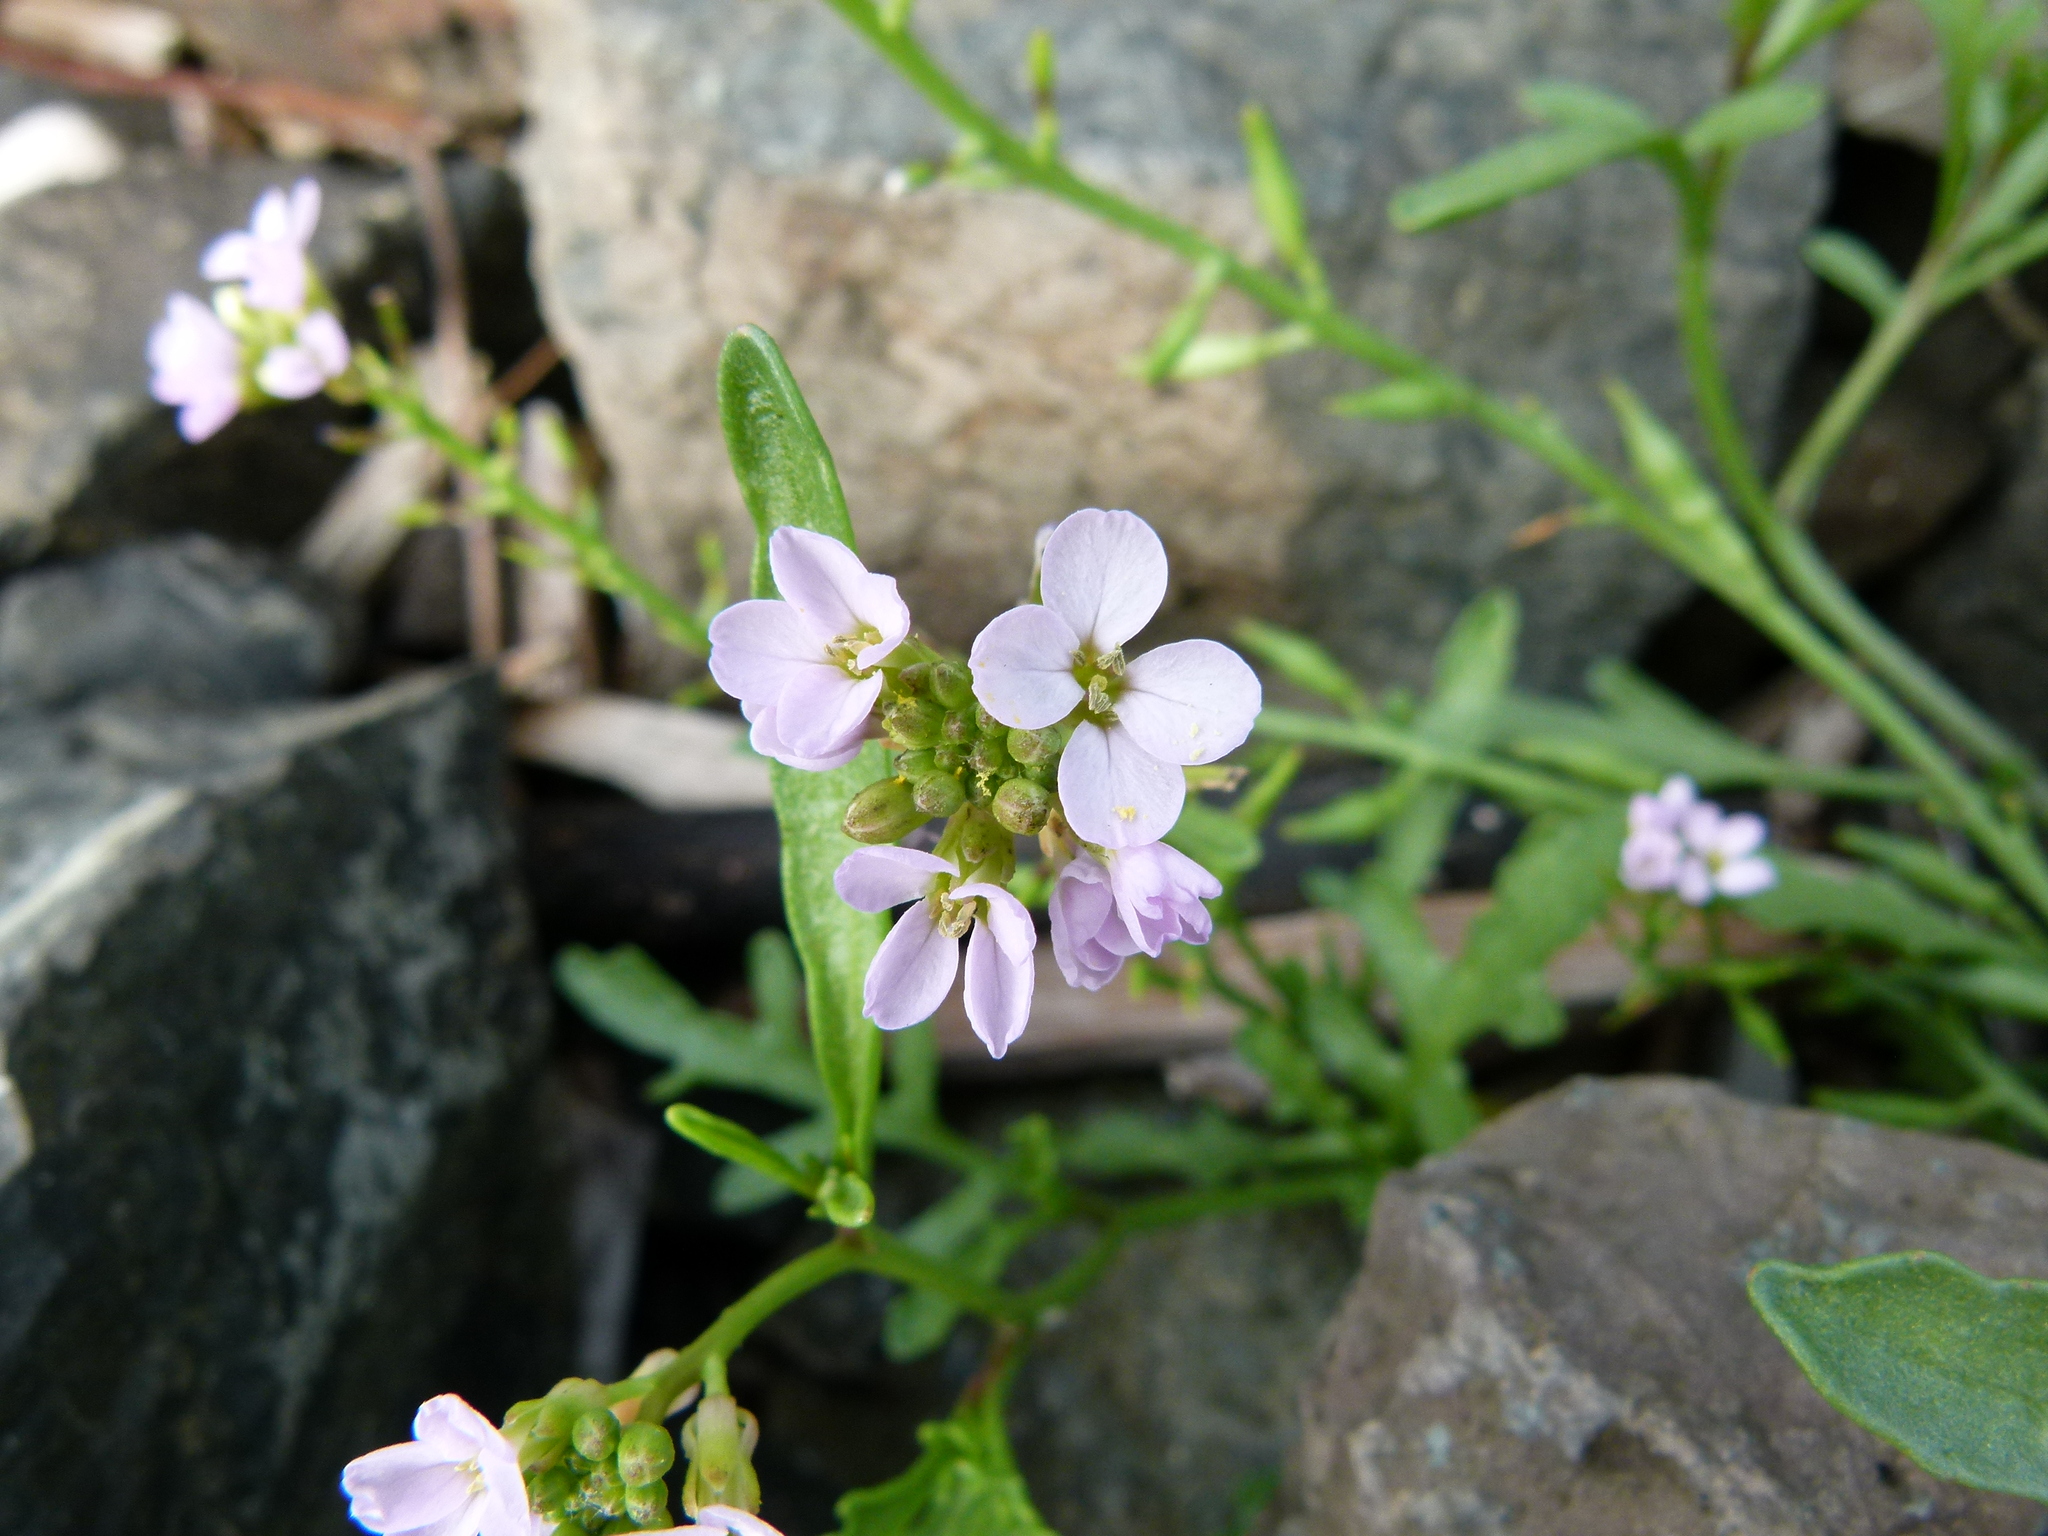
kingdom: Plantae
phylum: Tracheophyta
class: Magnoliopsida
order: Brassicales
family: Brassicaceae
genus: Cakile
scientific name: Cakile maritima
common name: Sea rocket
